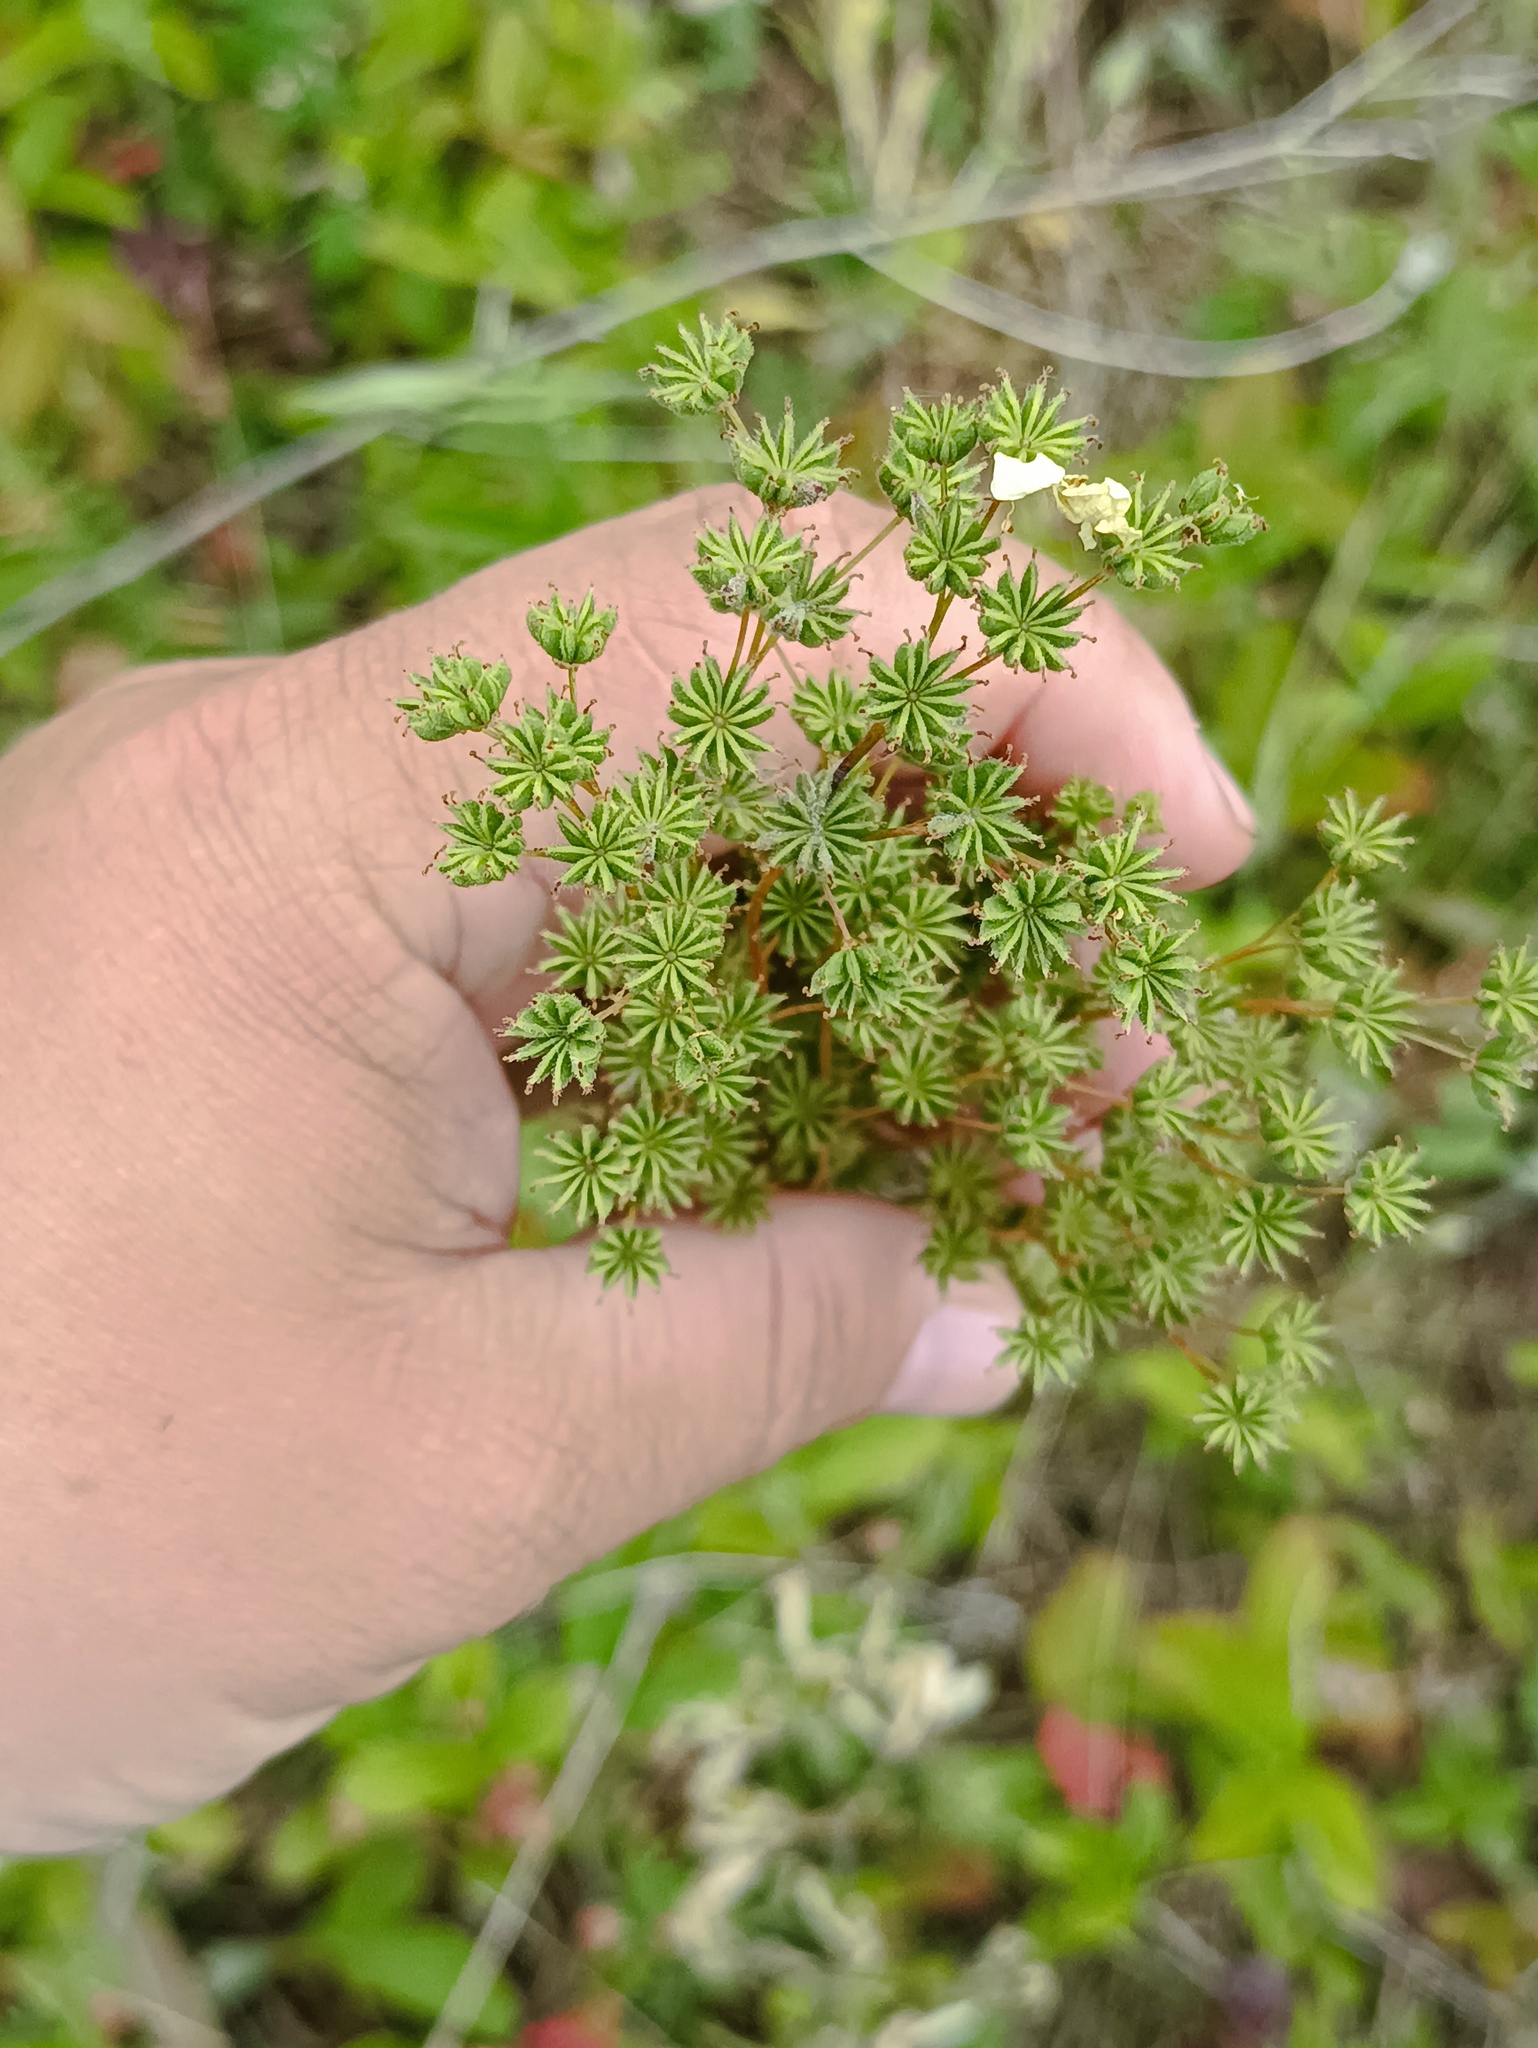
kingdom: Plantae
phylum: Tracheophyta
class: Magnoliopsida
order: Rosales
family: Rosaceae
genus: Filipendula
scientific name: Filipendula vulgaris
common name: Dropwort
